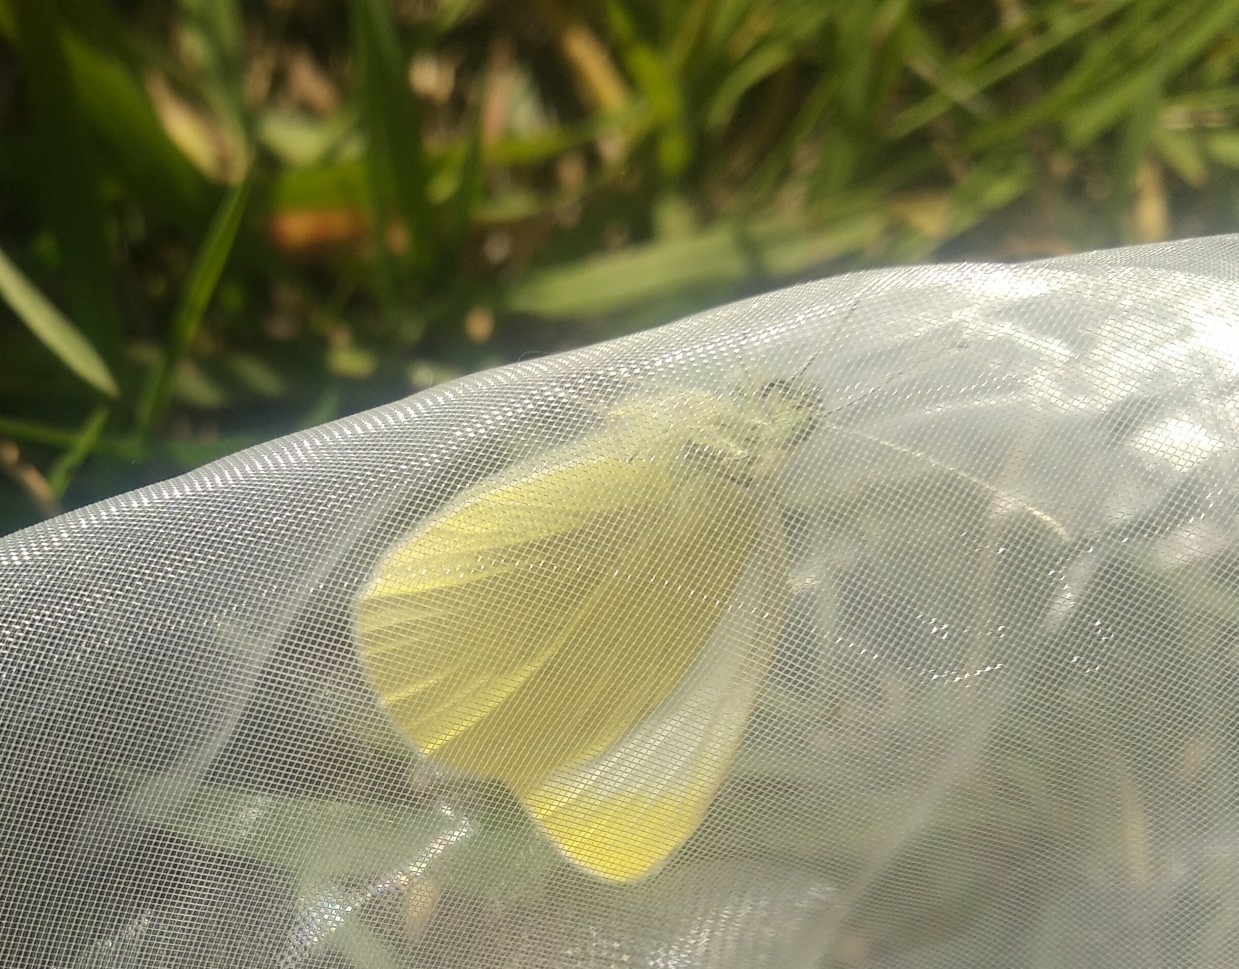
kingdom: Animalia
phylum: Arthropoda
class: Insecta
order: Lepidoptera
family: Pieridae
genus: Pieris
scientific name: Pieris rapae
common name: Small white
